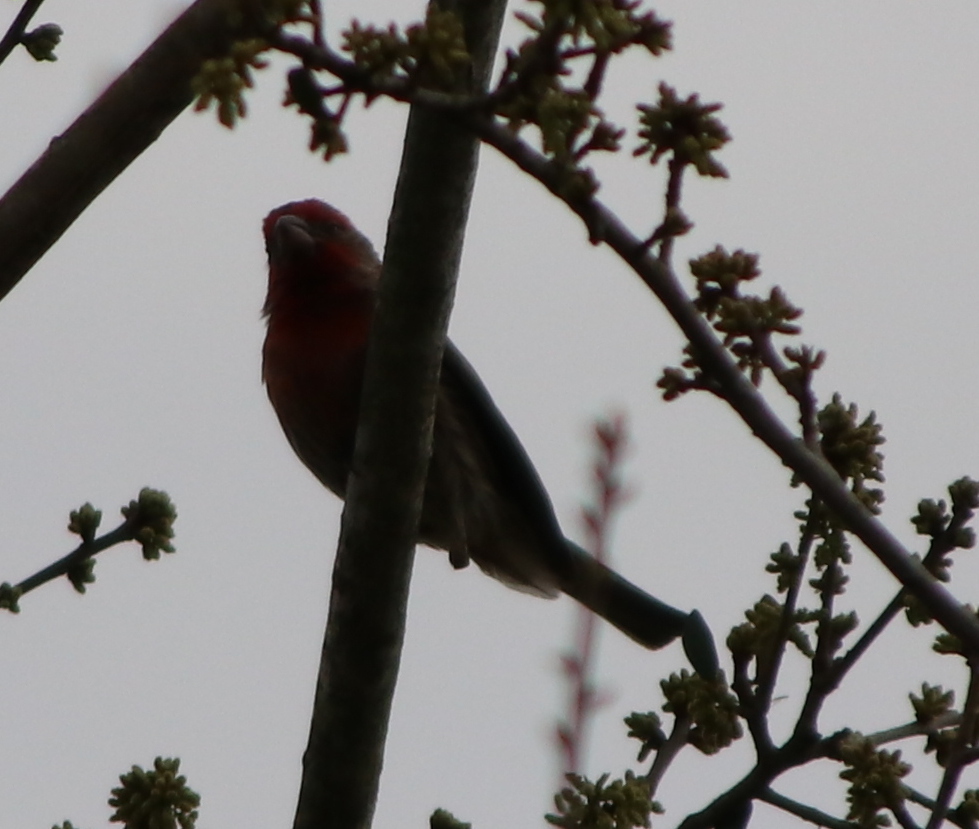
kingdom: Animalia
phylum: Chordata
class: Aves
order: Passeriformes
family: Fringillidae
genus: Haemorhous
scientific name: Haemorhous mexicanus
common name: House finch
